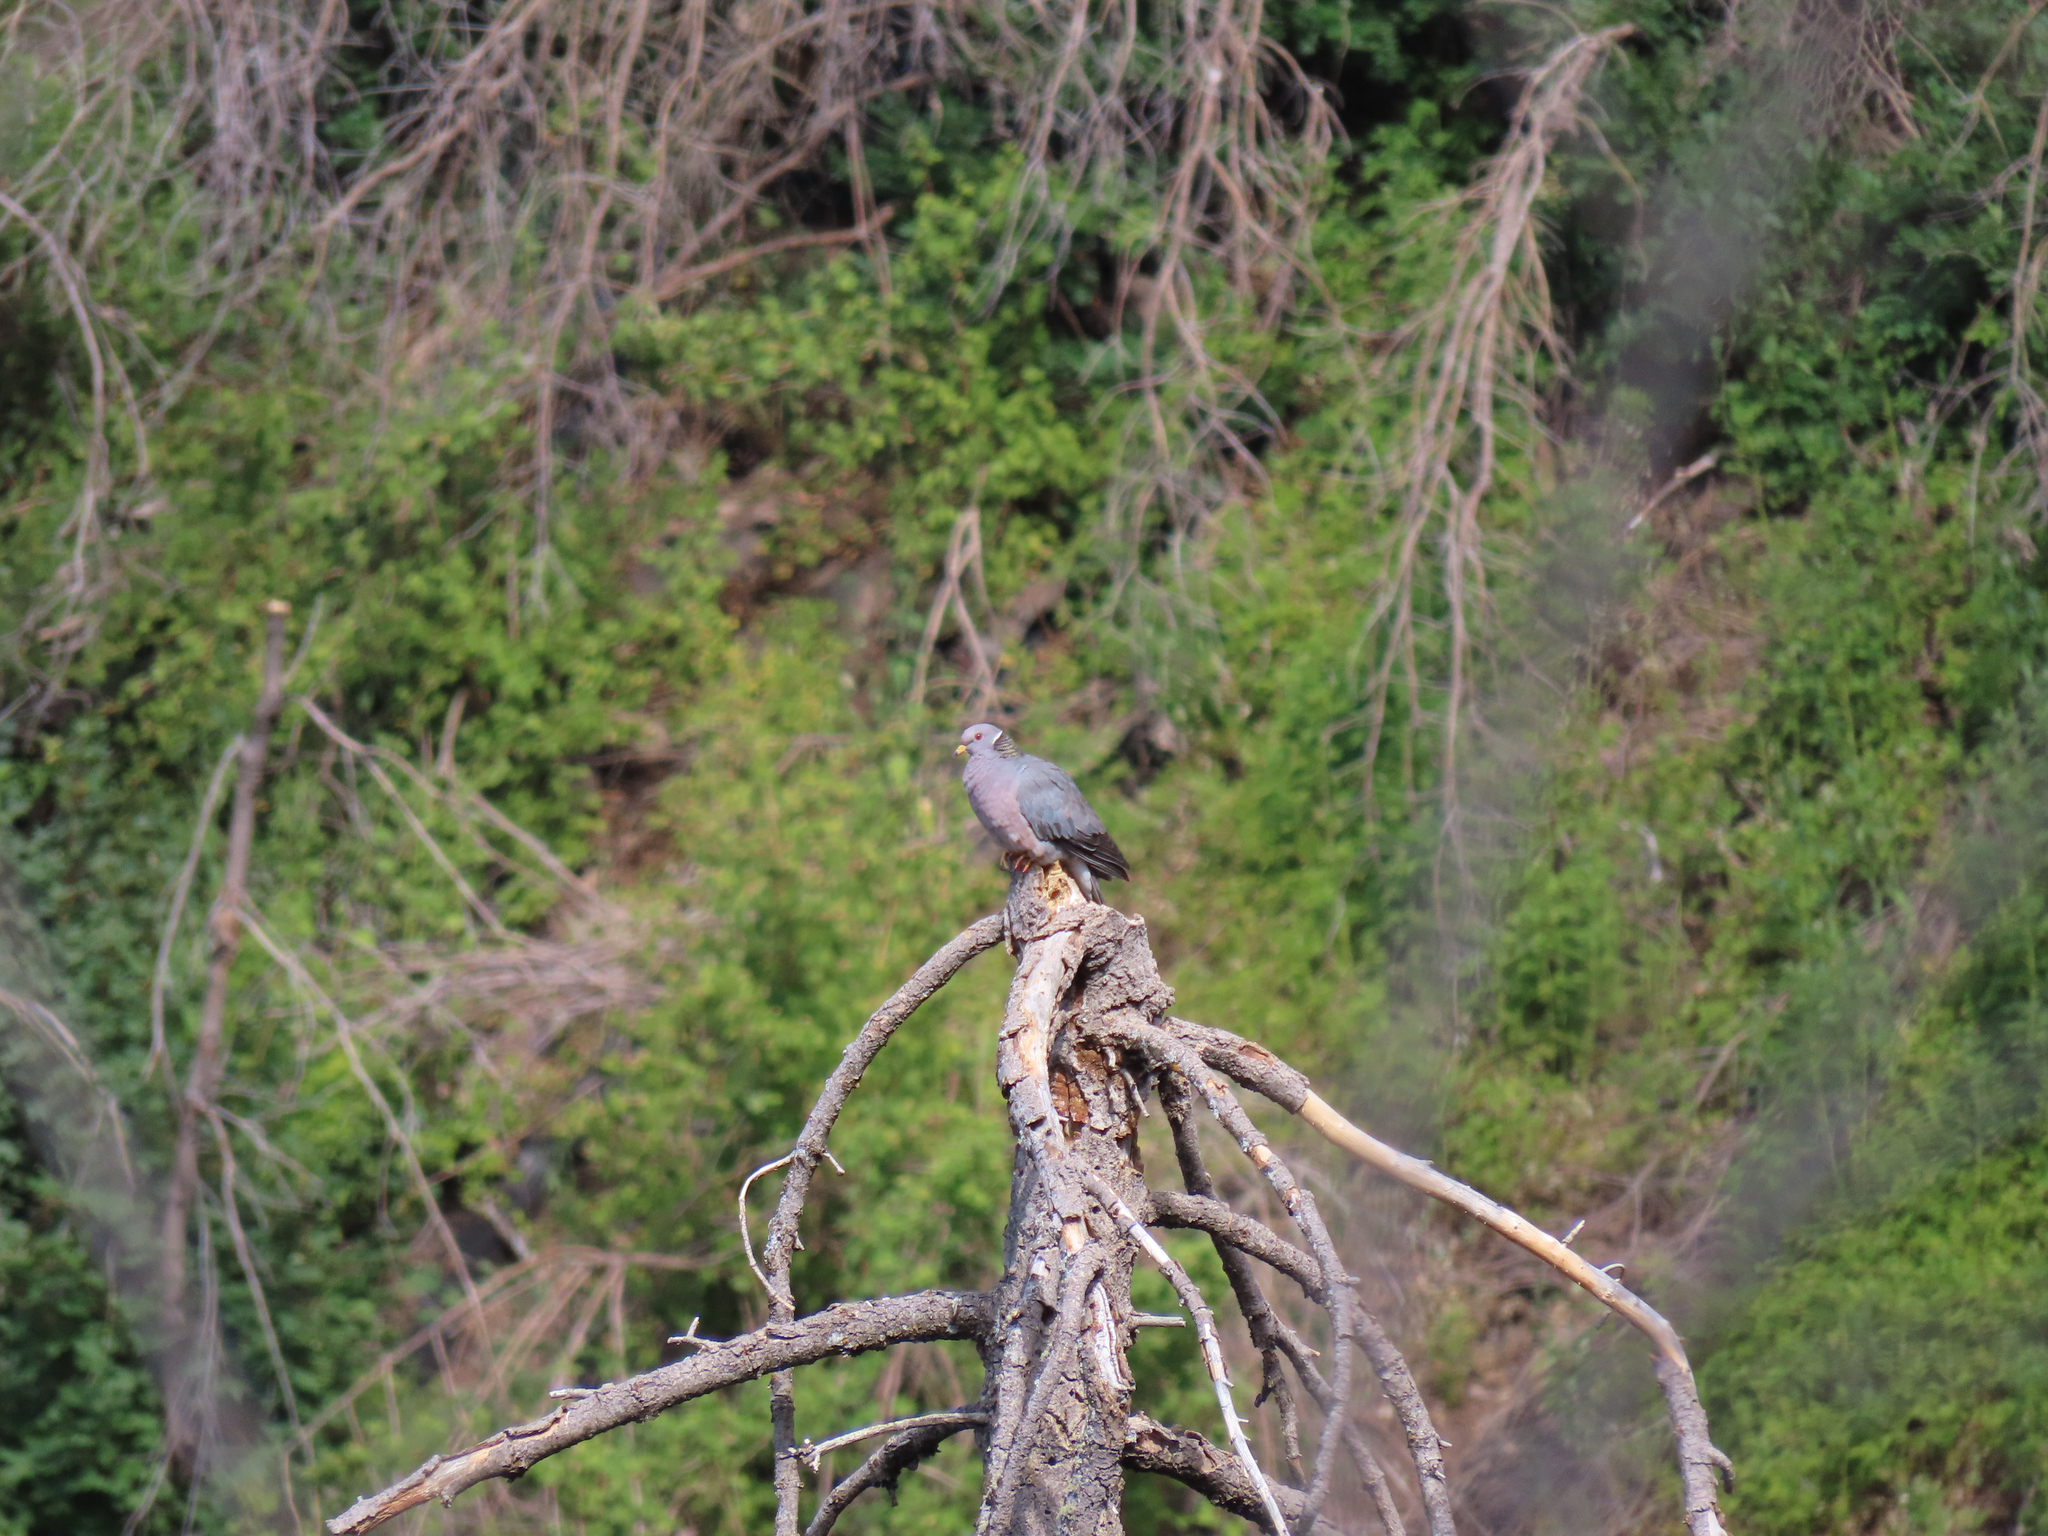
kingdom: Animalia
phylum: Chordata
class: Aves
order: Columbiformes
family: Columbidae
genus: Patagioenas
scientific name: Patagioenas fasciata
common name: Band-tailed pigeon
